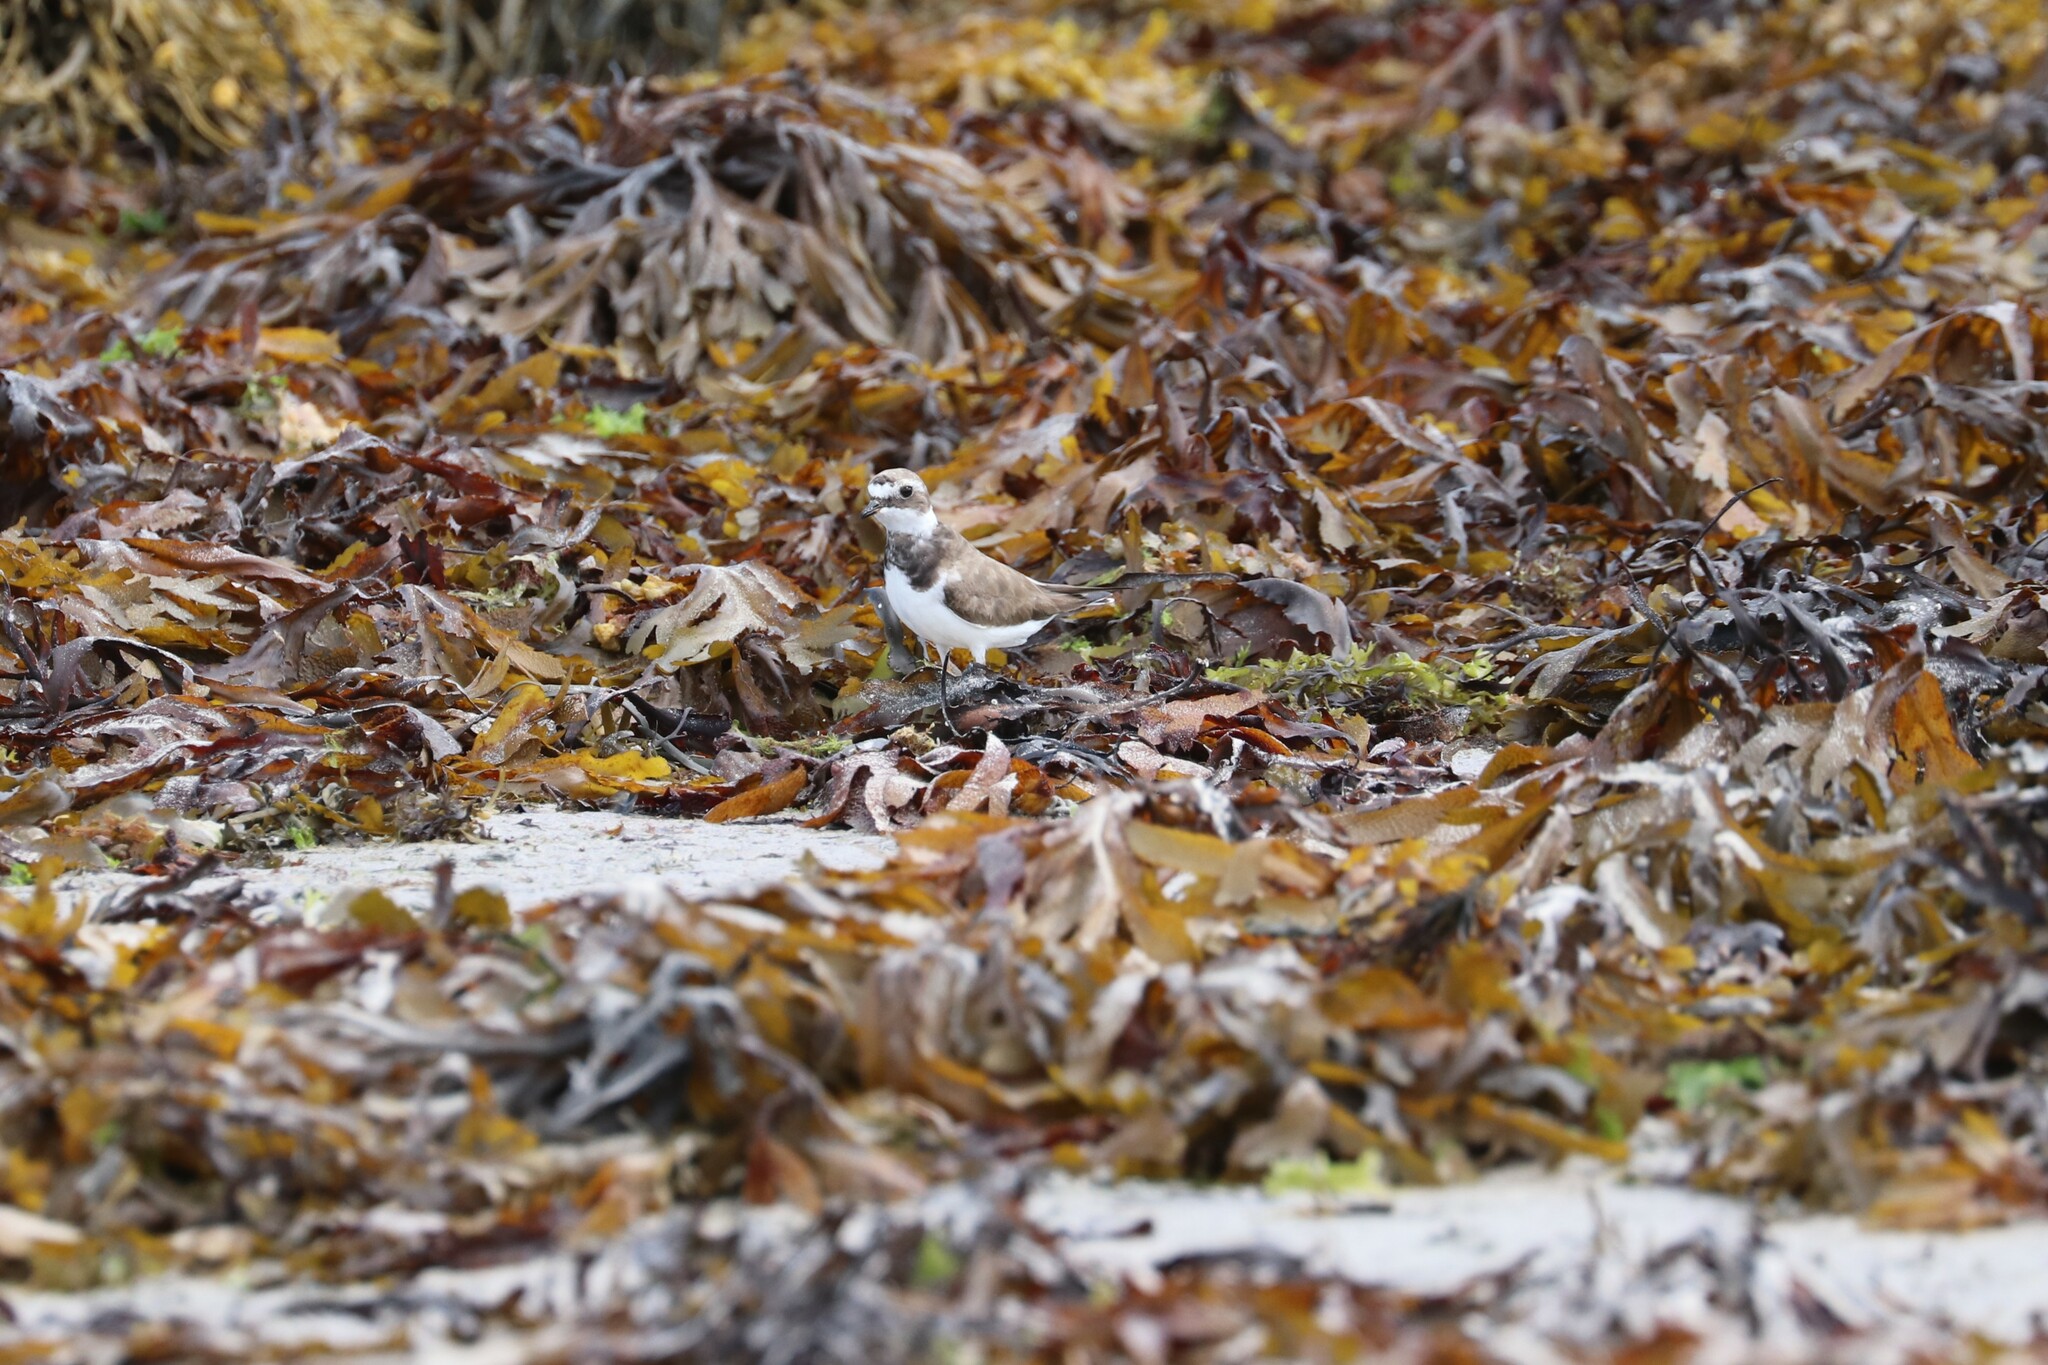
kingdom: Animalia
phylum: Chordata
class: Aves
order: Charadriiformes
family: Charadriidae
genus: Charadrius
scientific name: Charadrius hiaticula
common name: Common ringed plover
